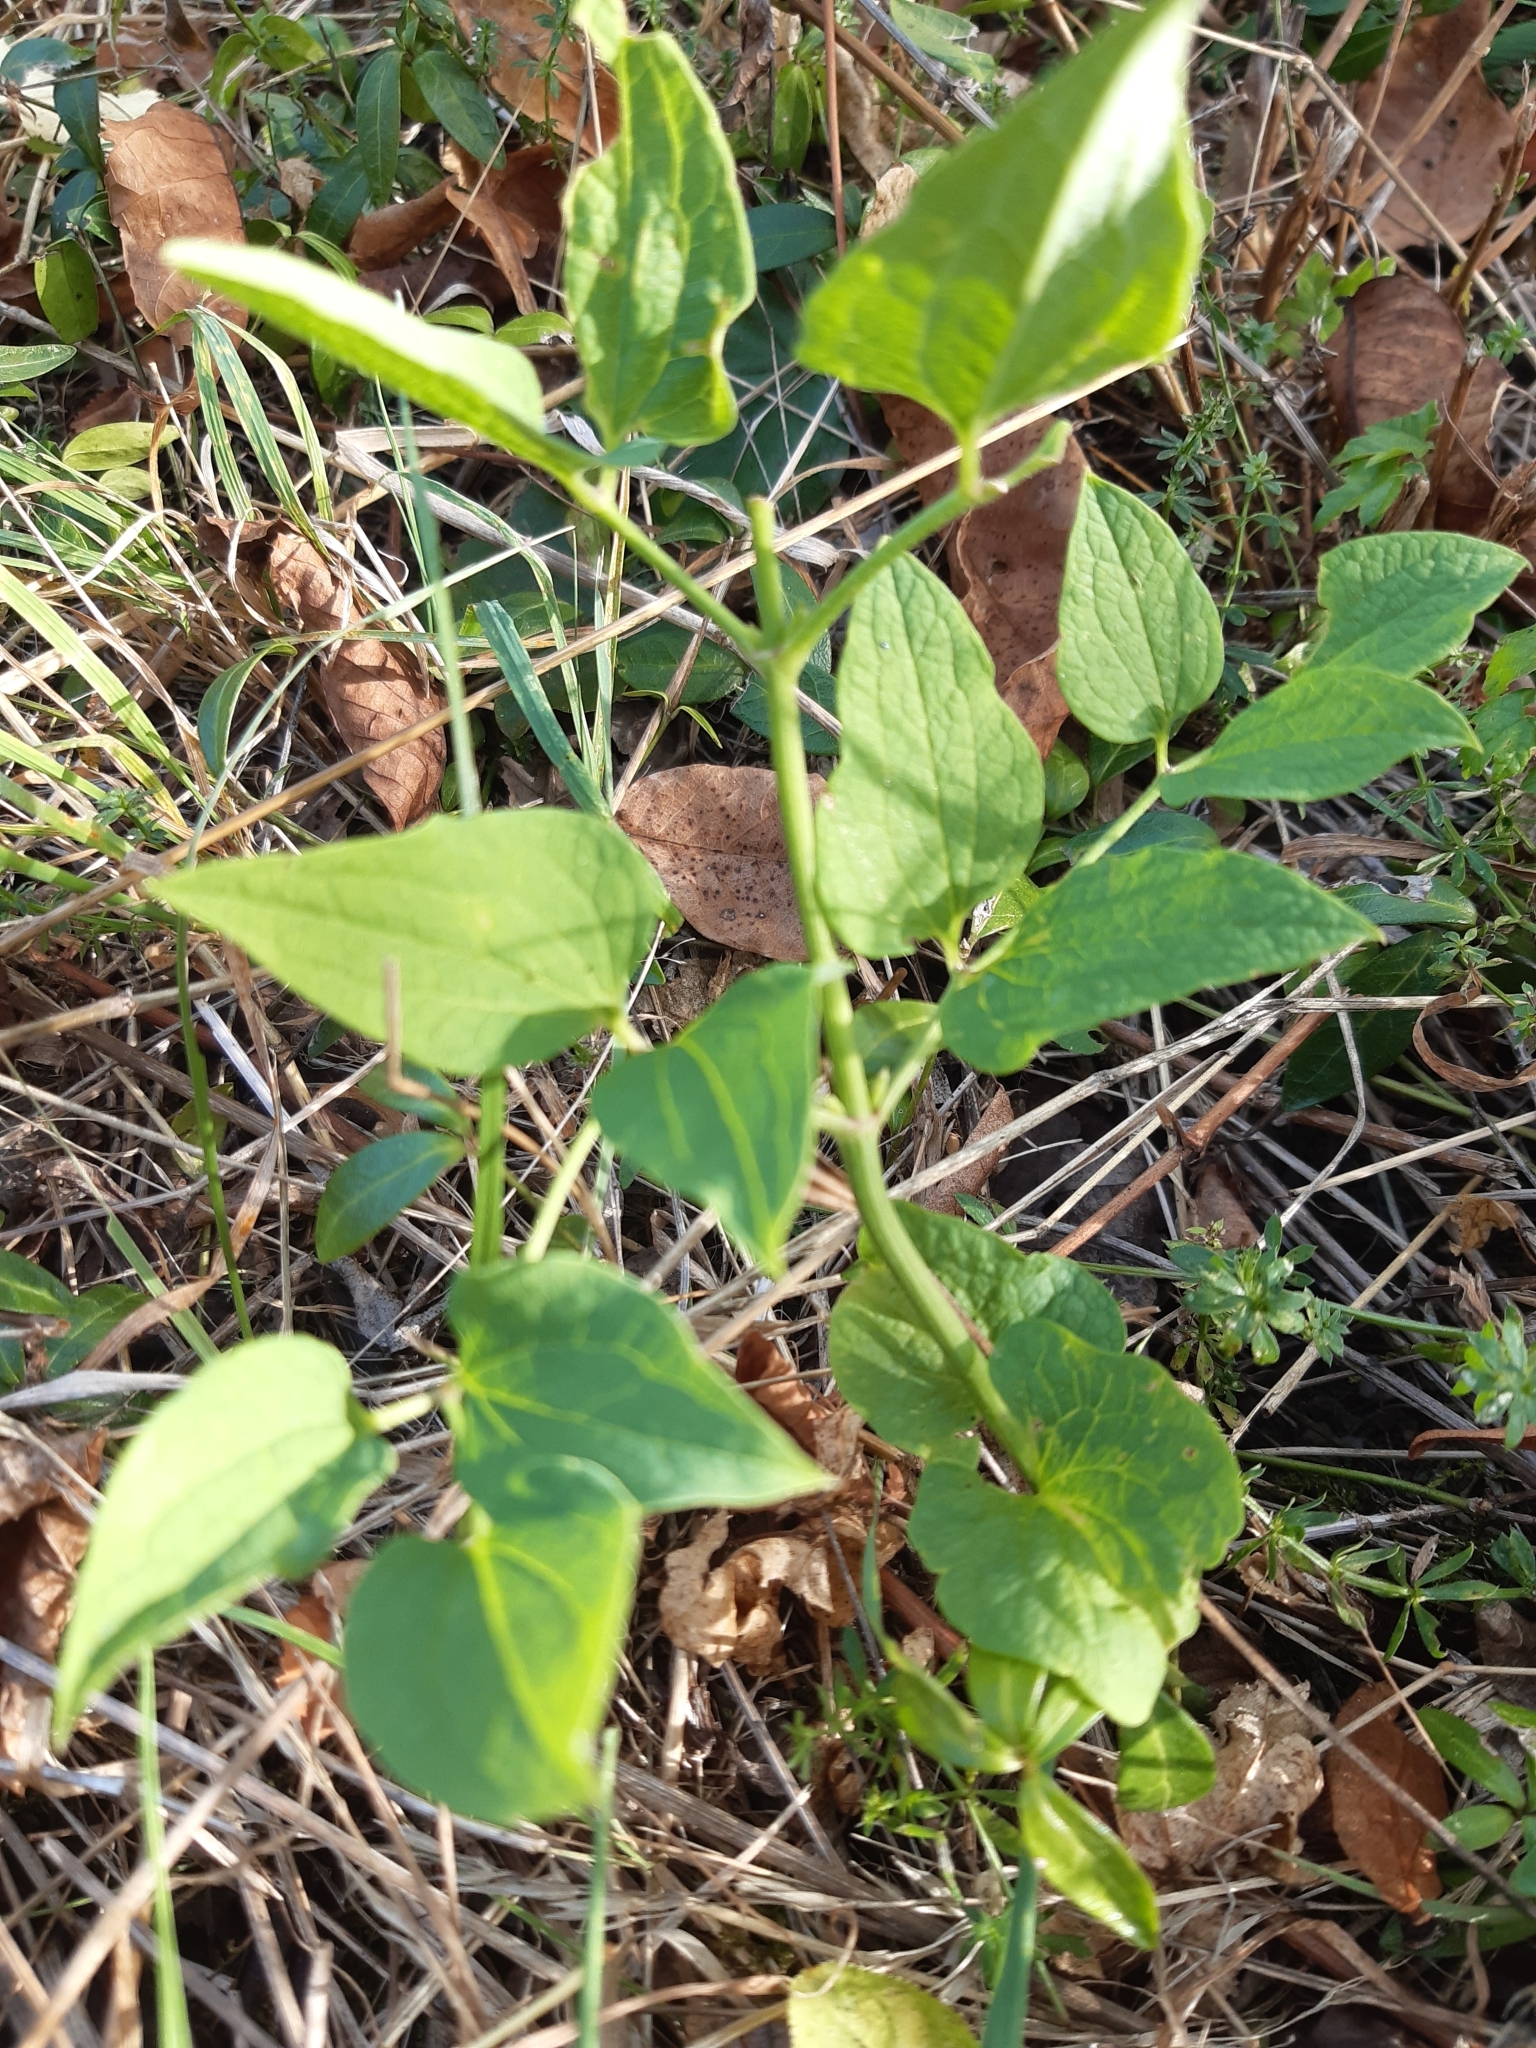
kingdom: Plantae
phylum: Tracheophyta
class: Magnoliopsida
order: Ranunculales
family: Ranunculaceae
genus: Clematis
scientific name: Clematis recta
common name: Ground clematis
